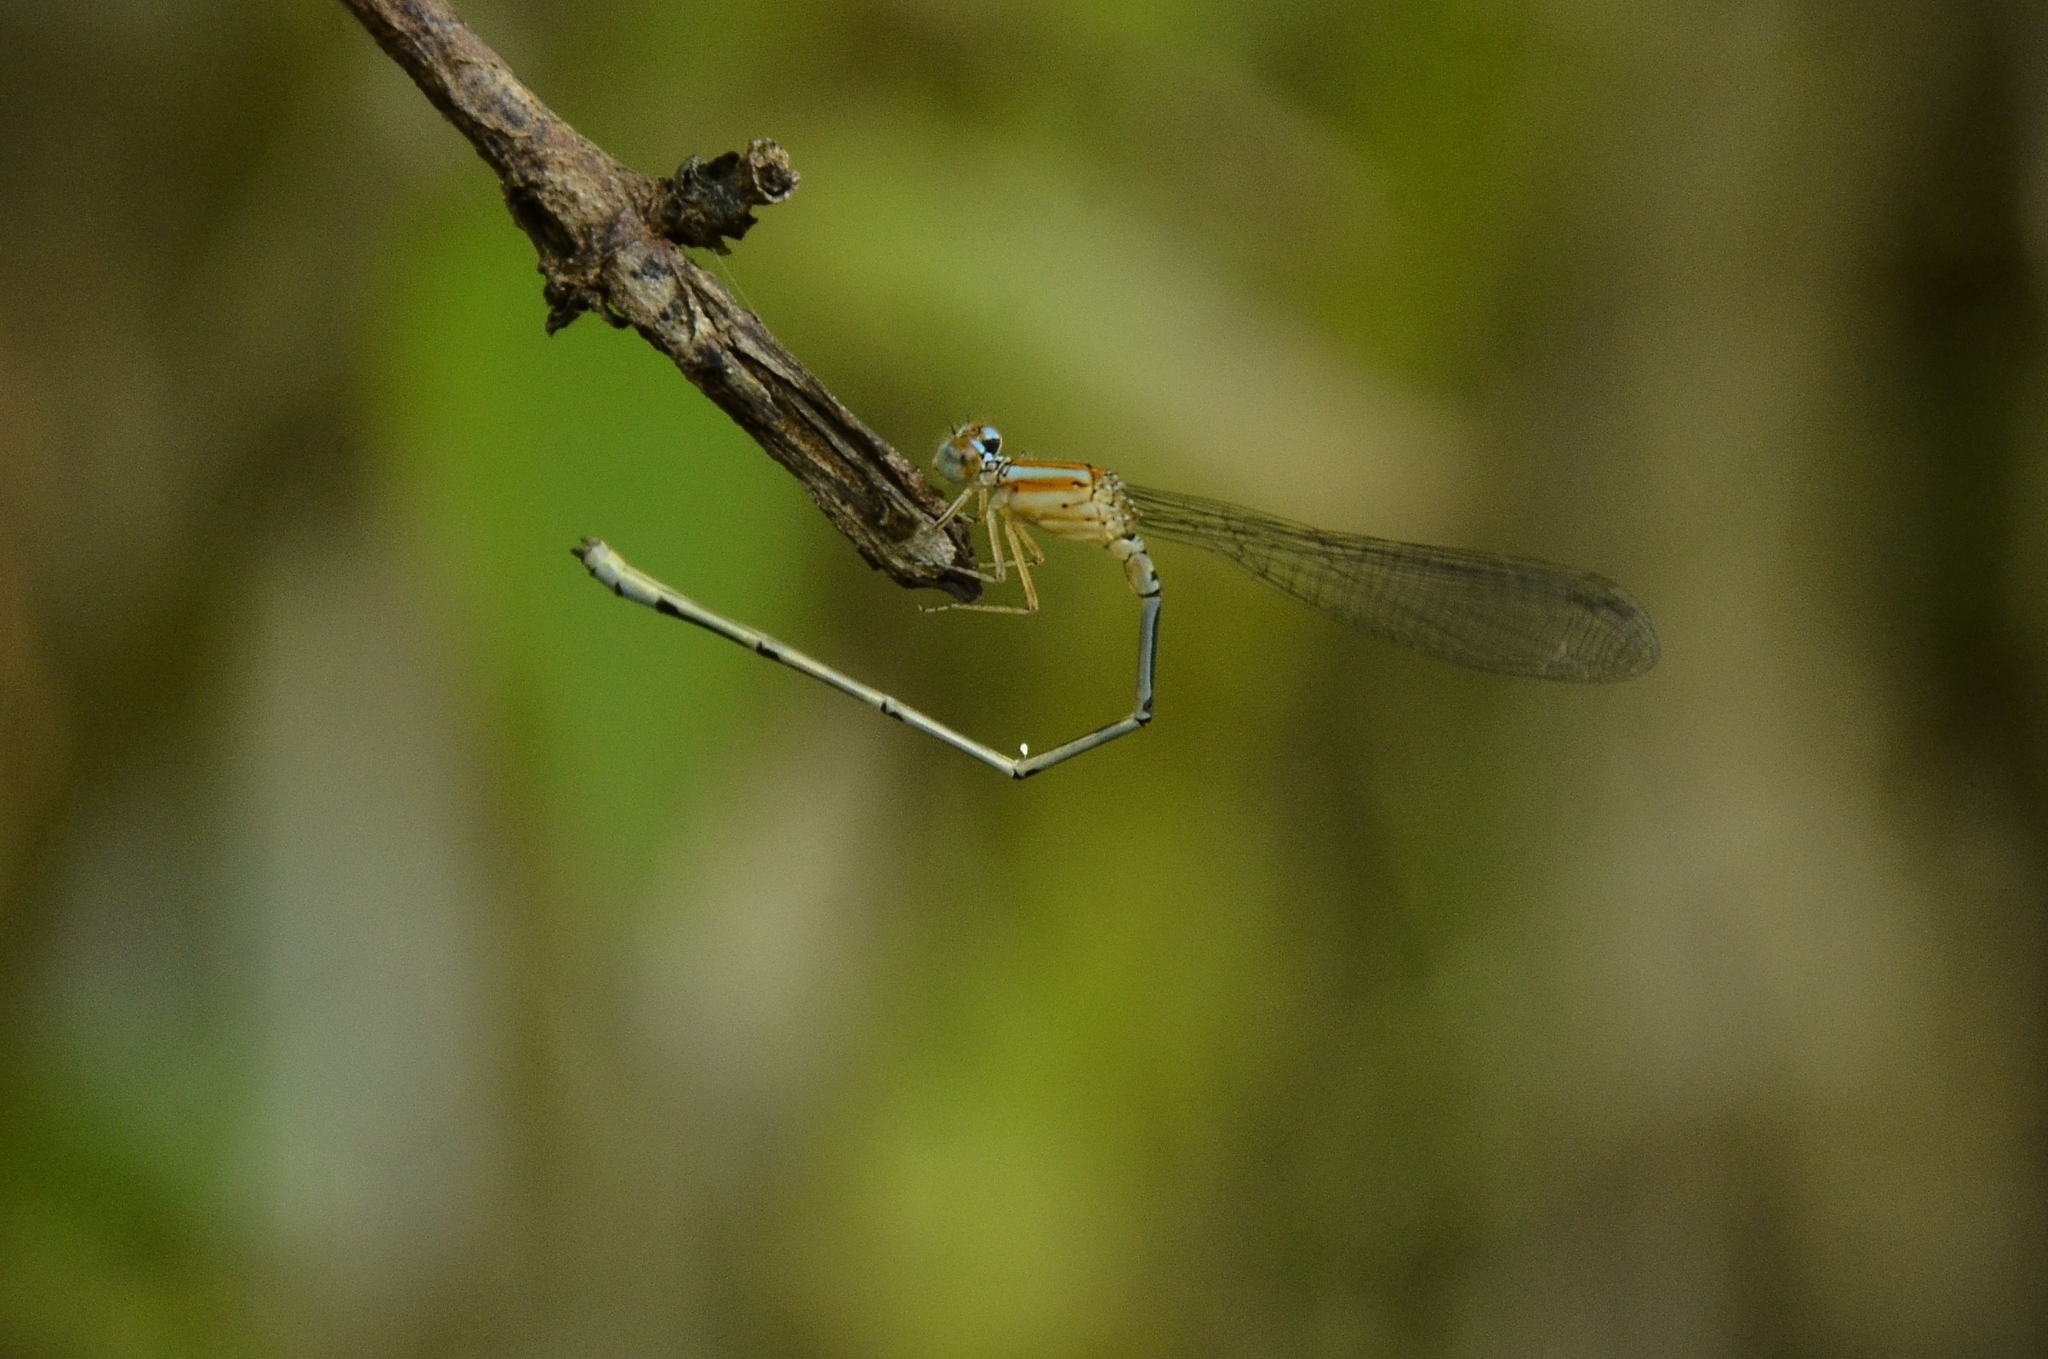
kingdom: Animalia
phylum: Arthropoda
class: Insecta
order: Odonata
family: Coenagrionidae
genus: Pseudagrion
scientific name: Pseudagrion microcephalum
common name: Blue riverdamsel
